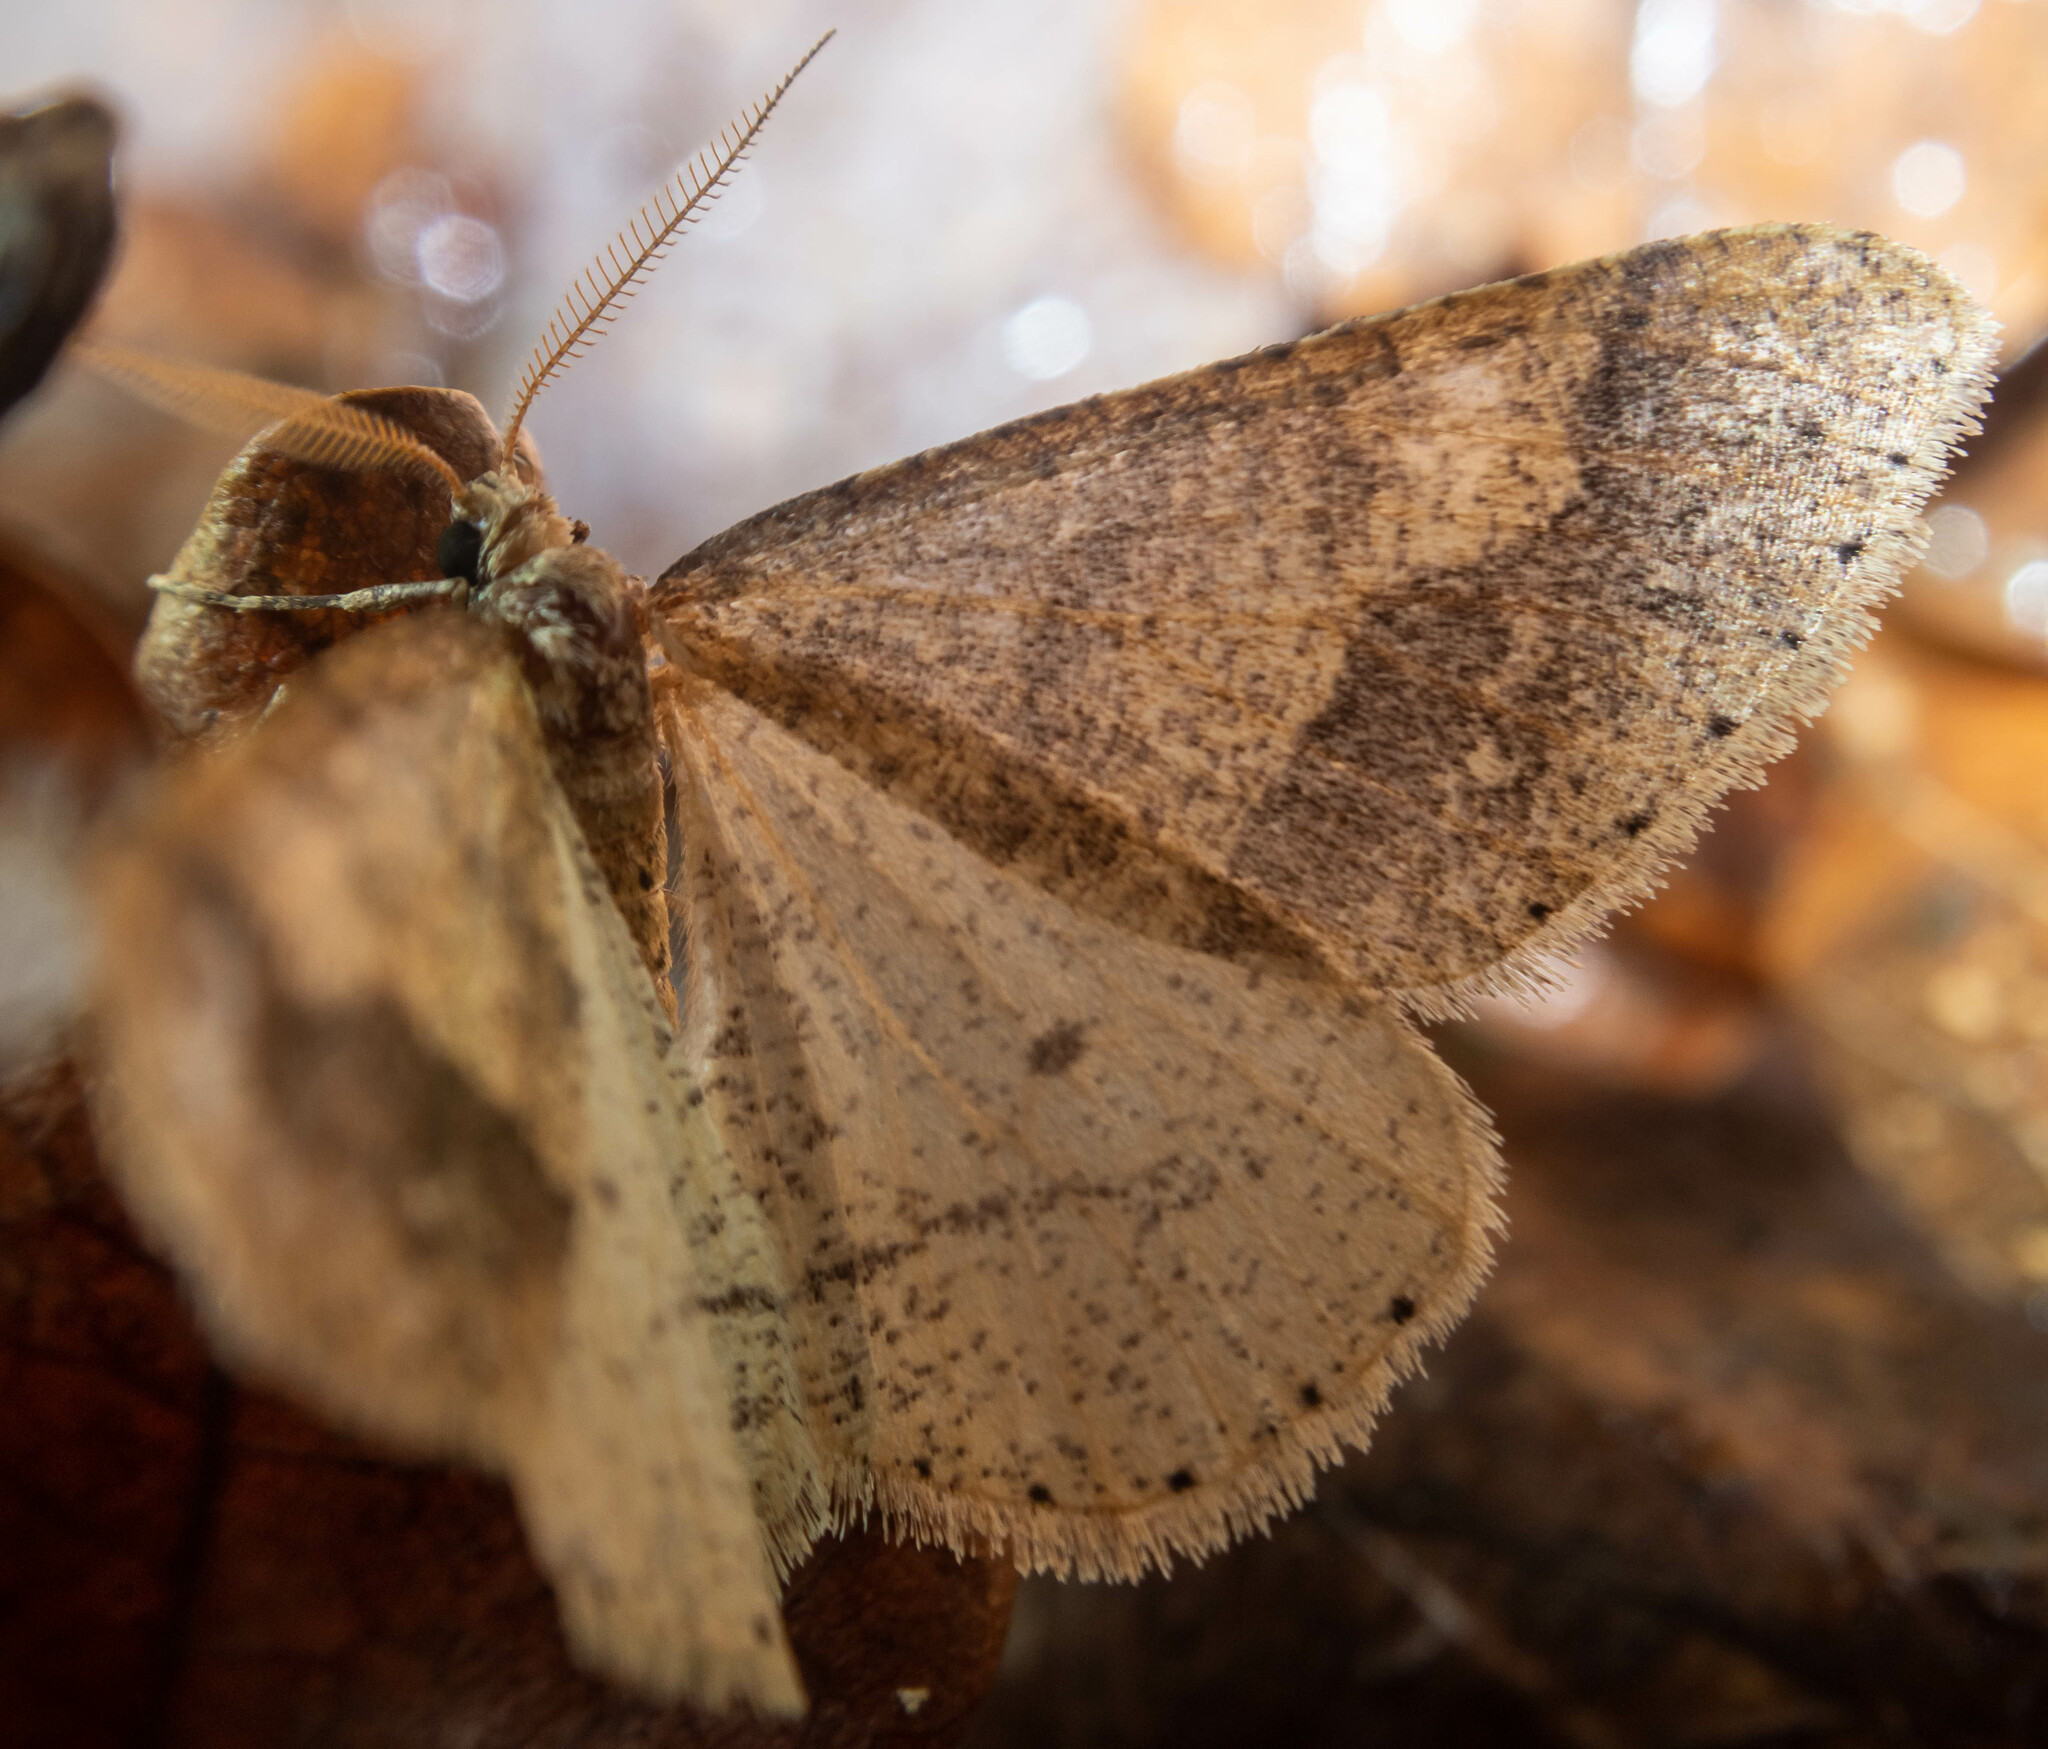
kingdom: Animalia
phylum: Arthropoda
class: Insecta
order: Lepidoptera
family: Geometridae
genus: Agriopis
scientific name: Agriopis marginaria
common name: Dotted border
